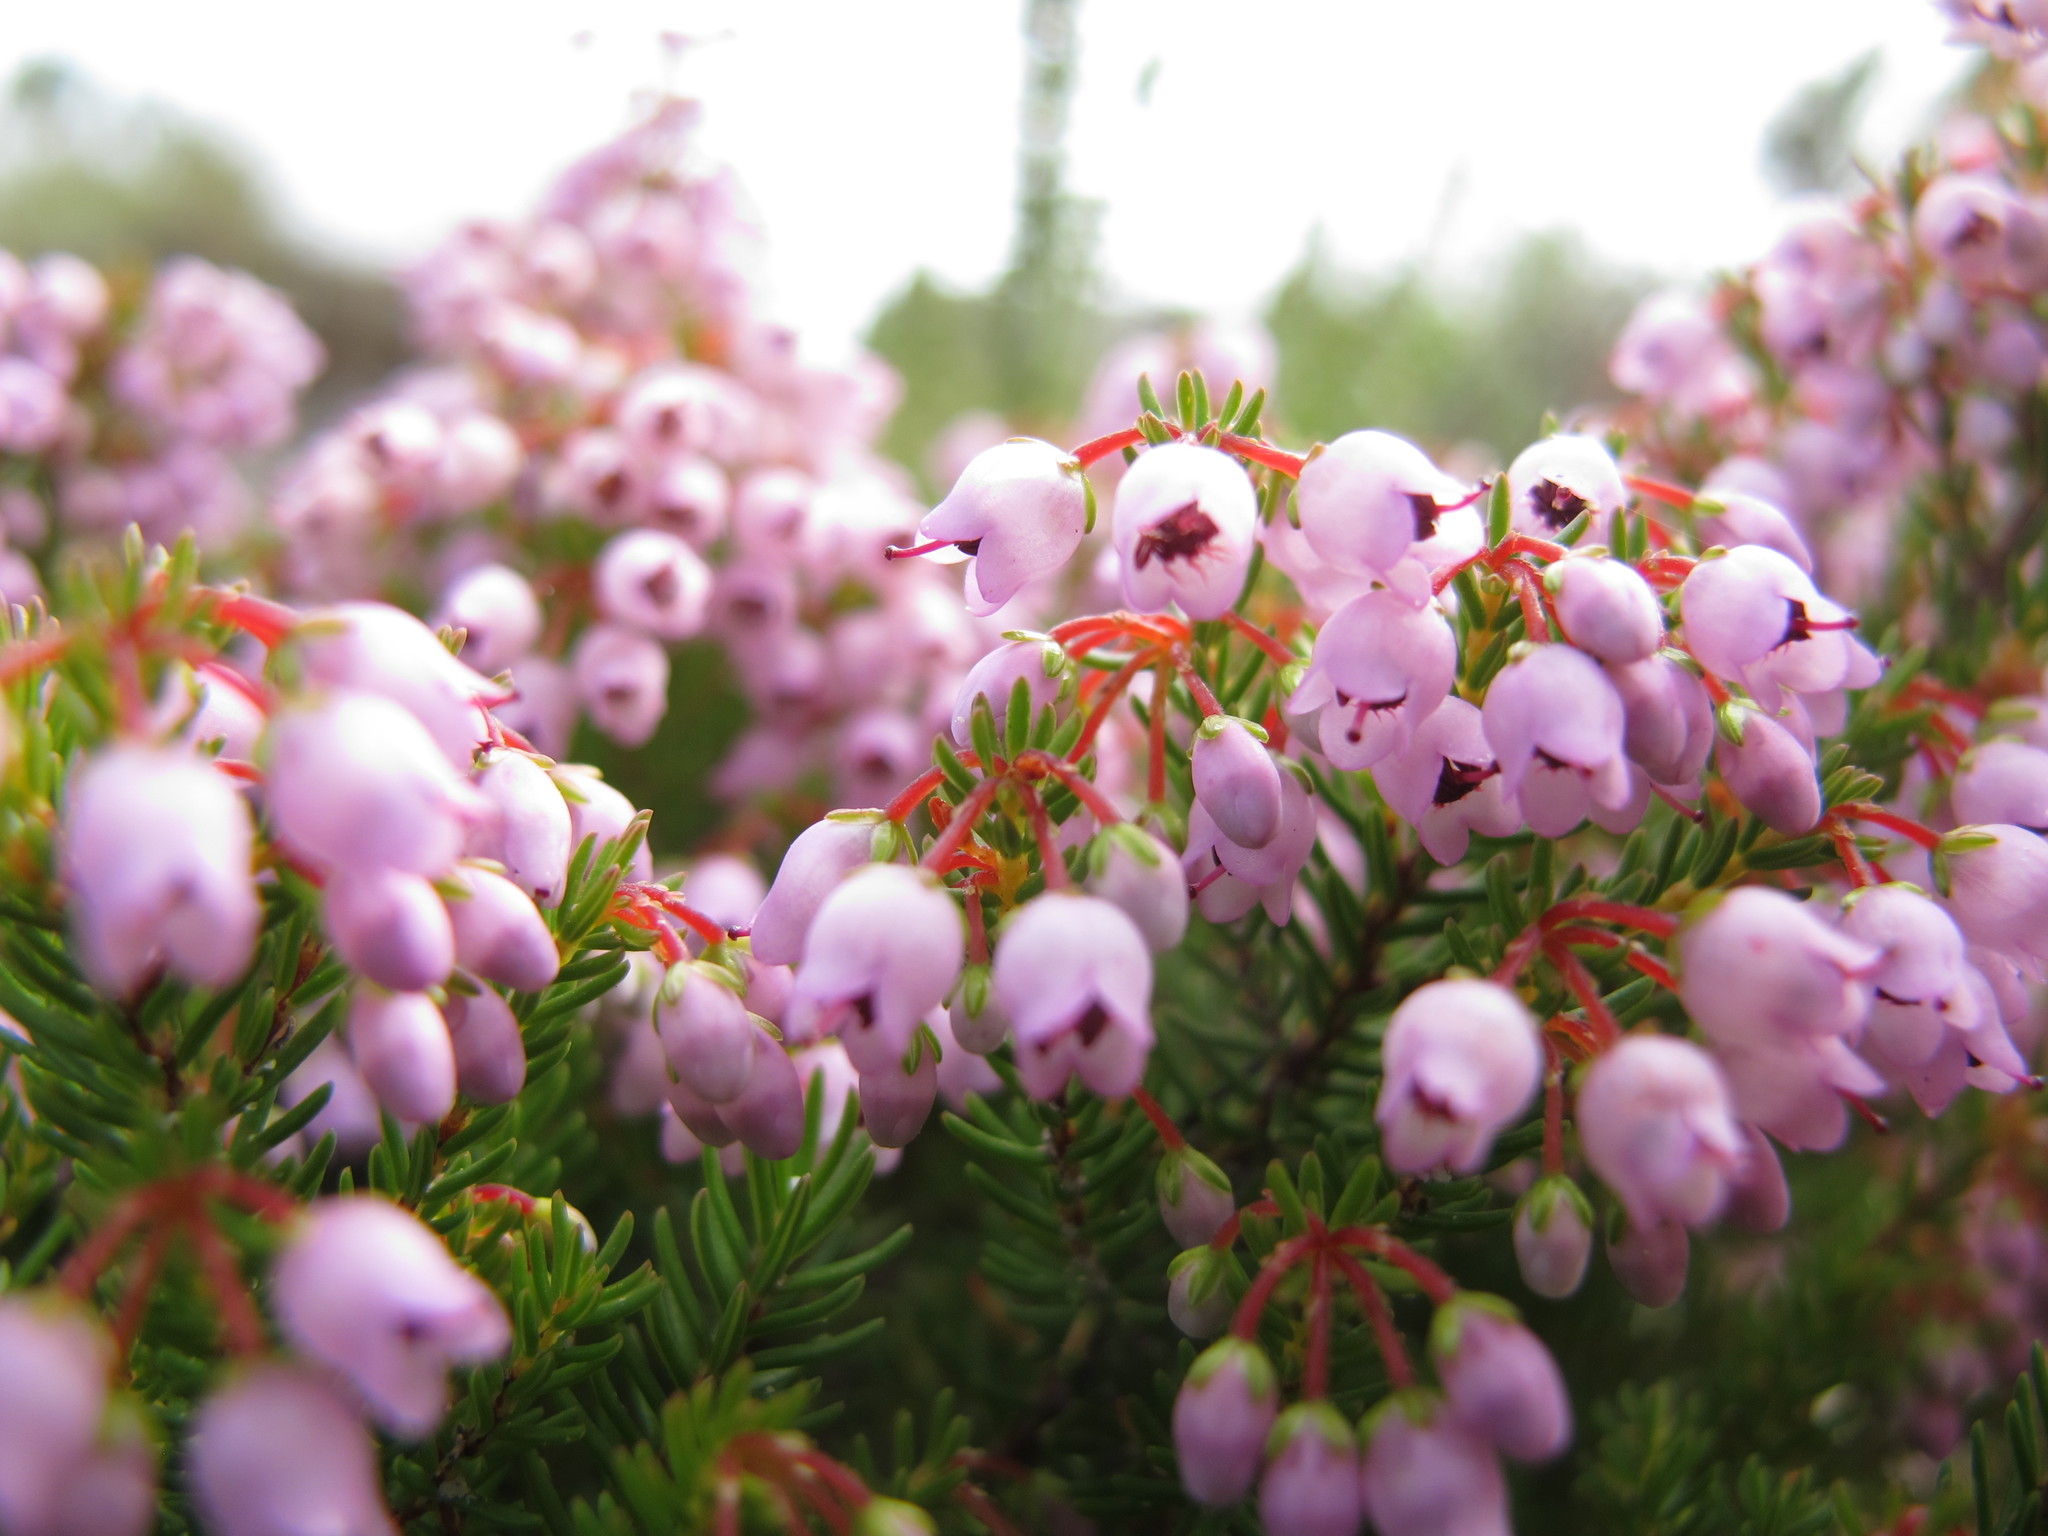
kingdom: Plantae
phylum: Tracheophyta
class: Magnoliopsida
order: Ericales
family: Ericaceae
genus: Erica
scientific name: Erica curvirostris
